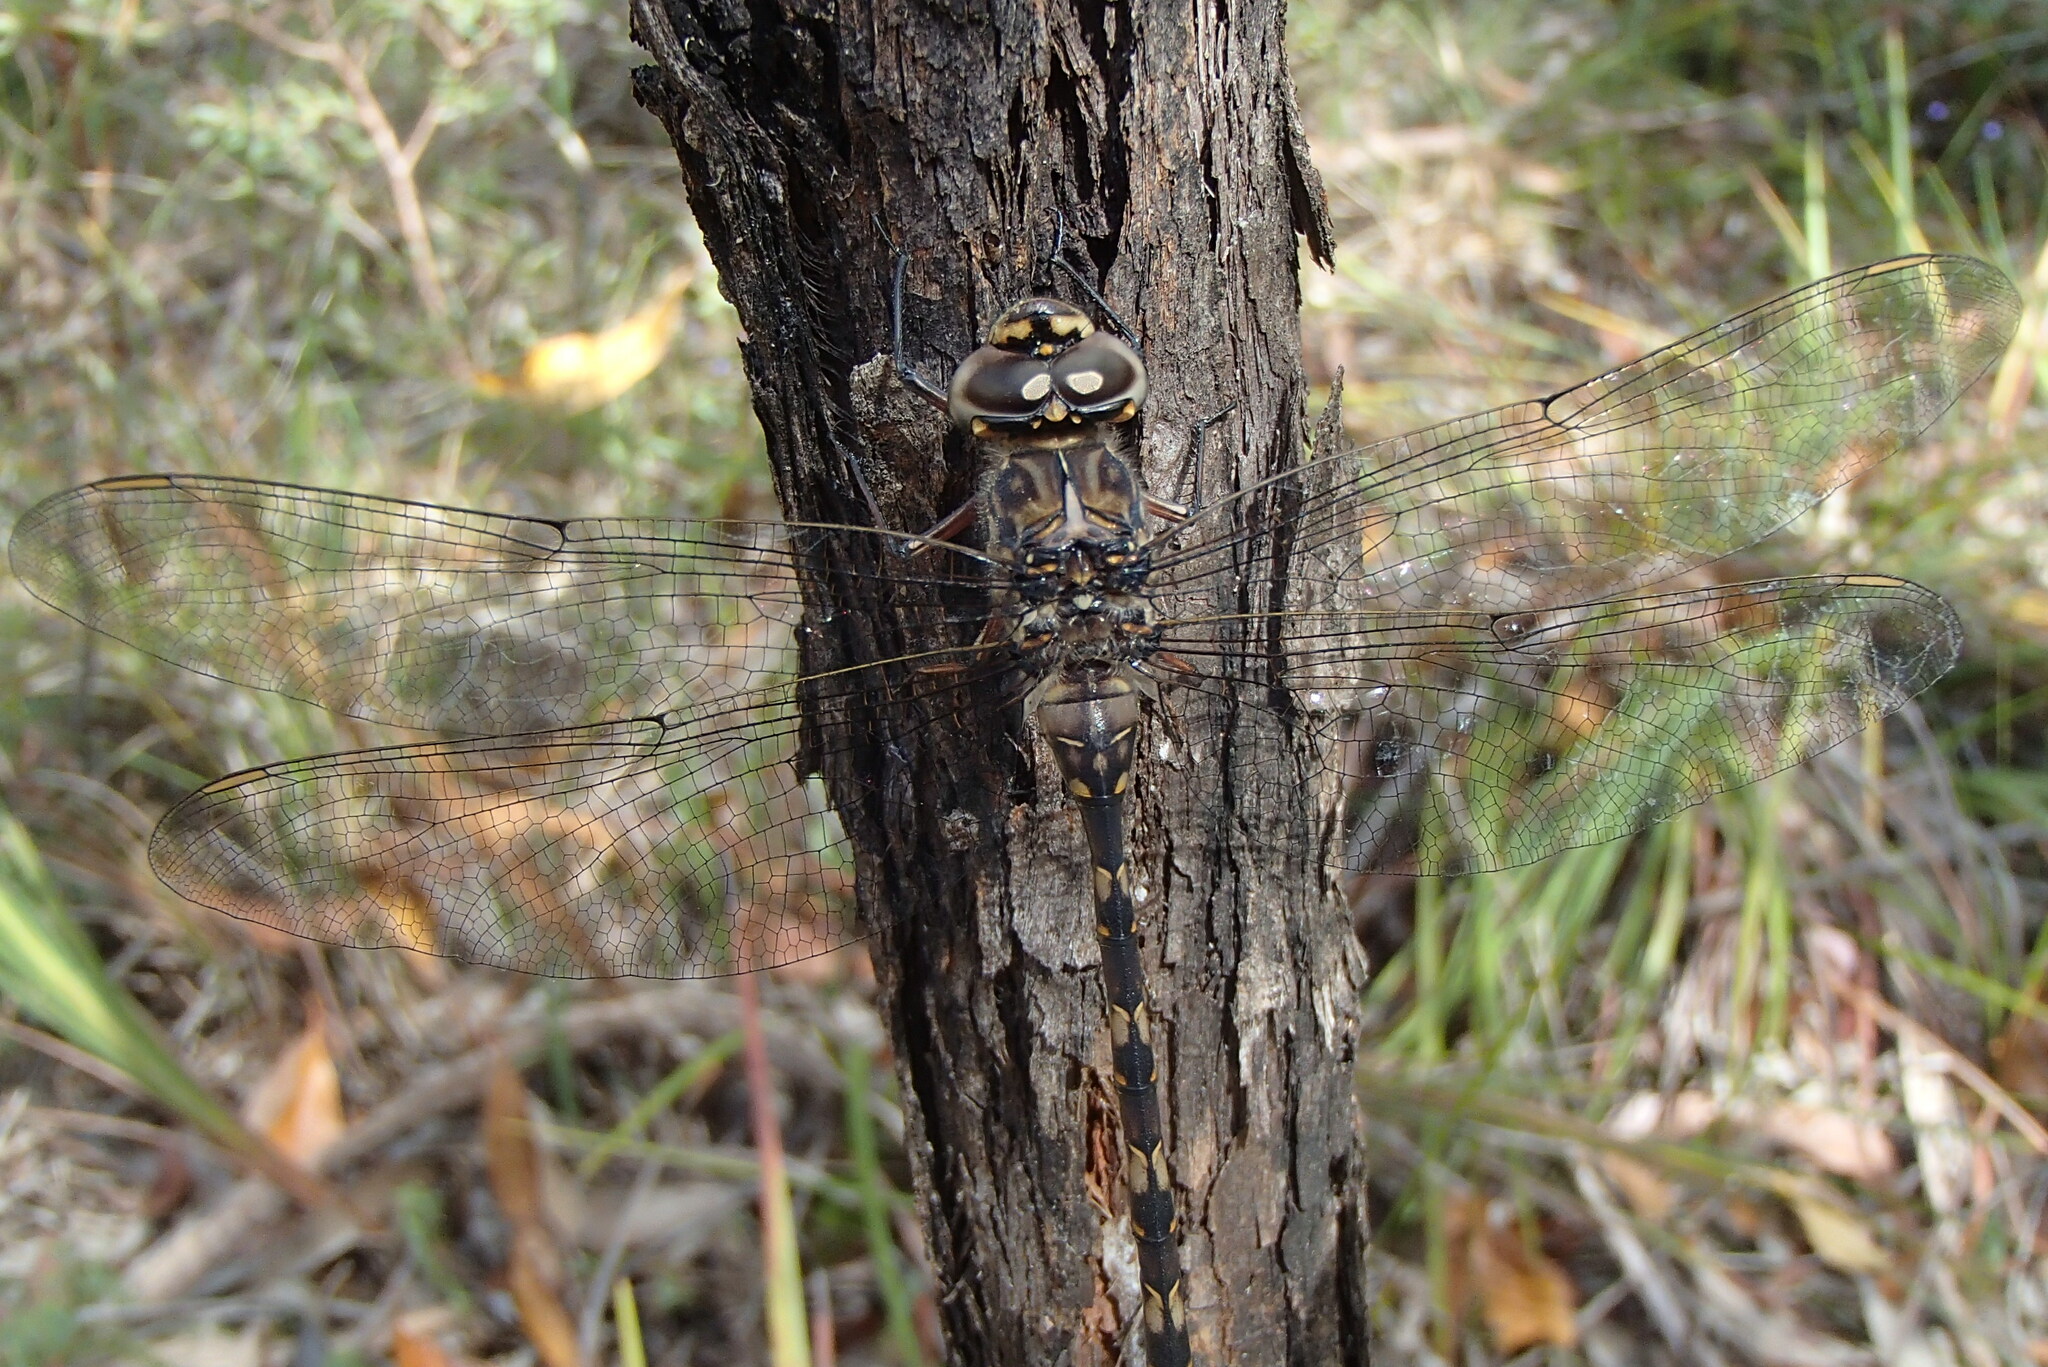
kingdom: Animalia
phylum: Arthropoda
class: Insecta
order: Odonata
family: Aeshnidae
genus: Austroaeschna
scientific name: Austroaeschna subapicalis
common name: Conehead darner
